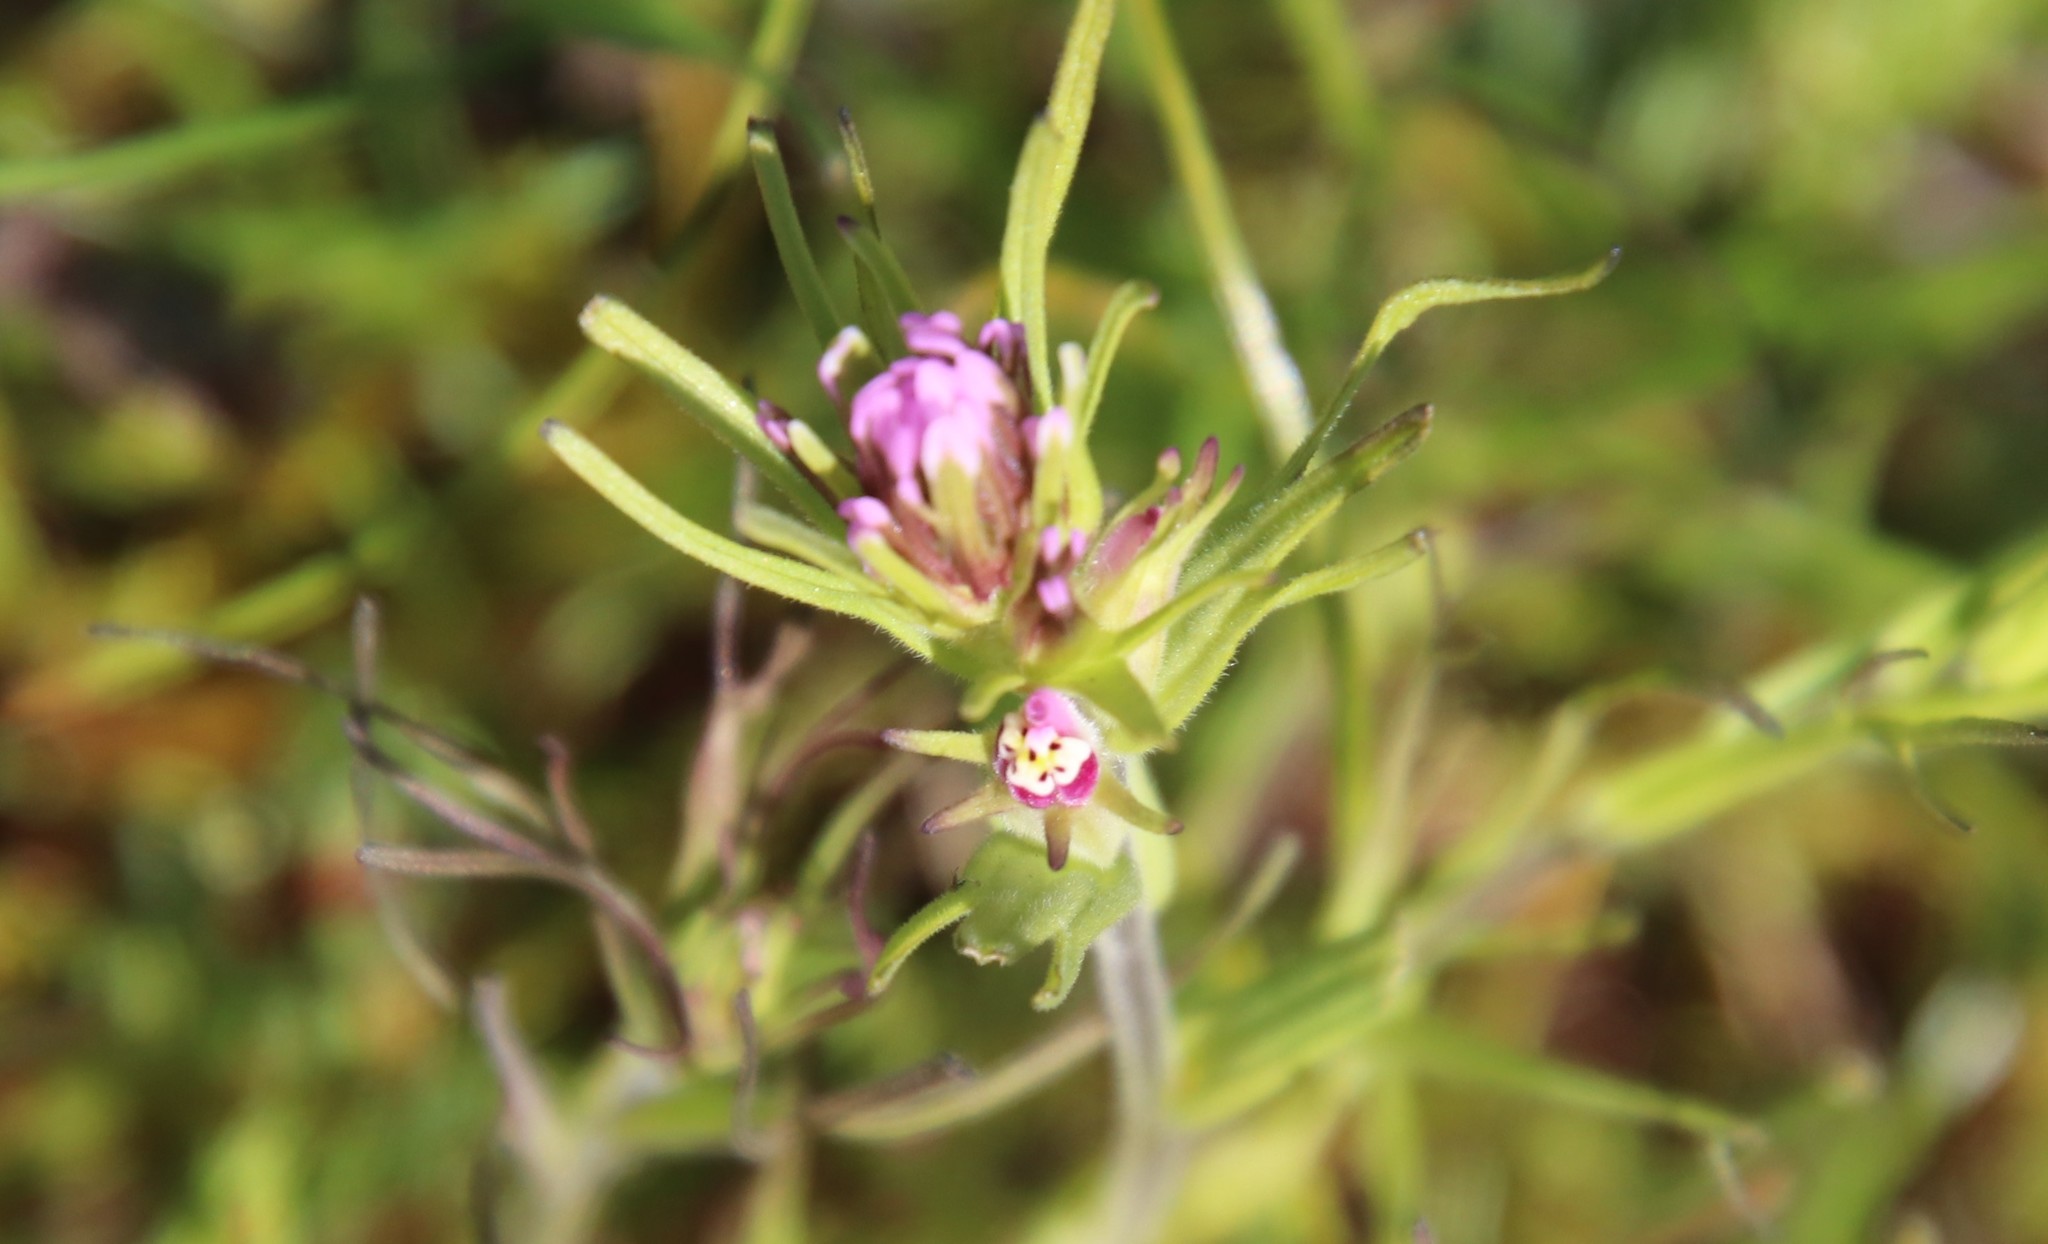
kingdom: Plantae
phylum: Tracheophyta
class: Magnoliopsida
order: Lamiales
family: Orobanchaceae
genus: Castilleja
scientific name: Castilleja densiflora
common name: Dense-flower indian paintbrush
